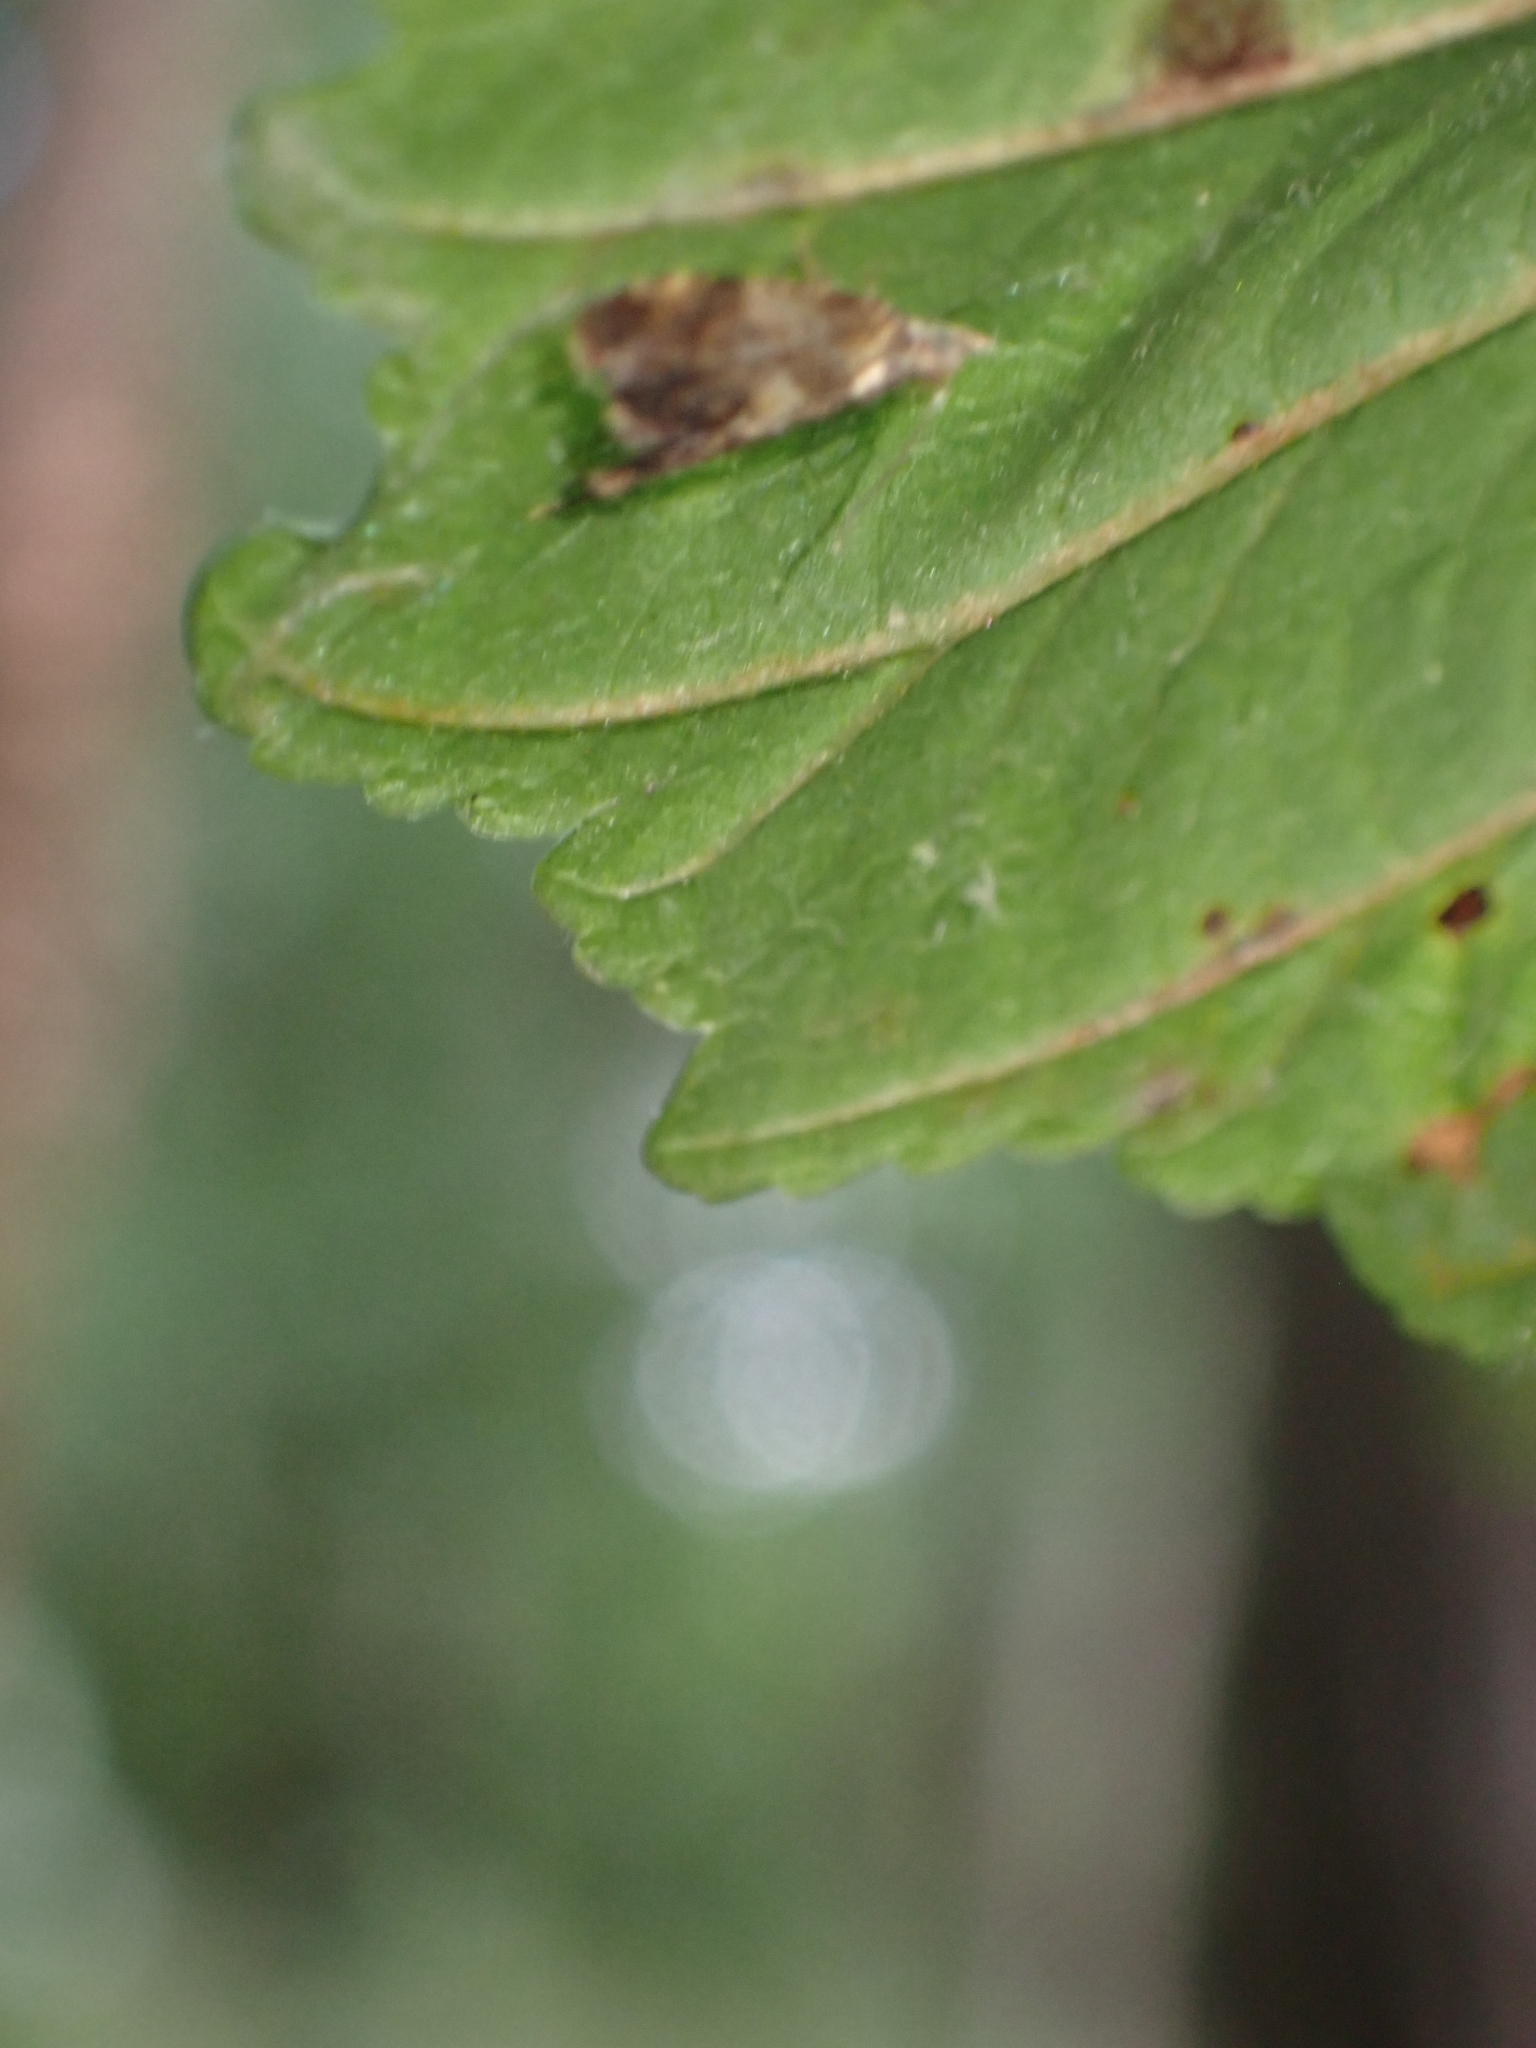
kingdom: Animalia
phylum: Arthropoda
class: Insecta
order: Lepidoptera
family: Tortricidae
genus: Pseudargyrotoza
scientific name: Pseudargyrotoza conwagana
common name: Yellow-spot twist
